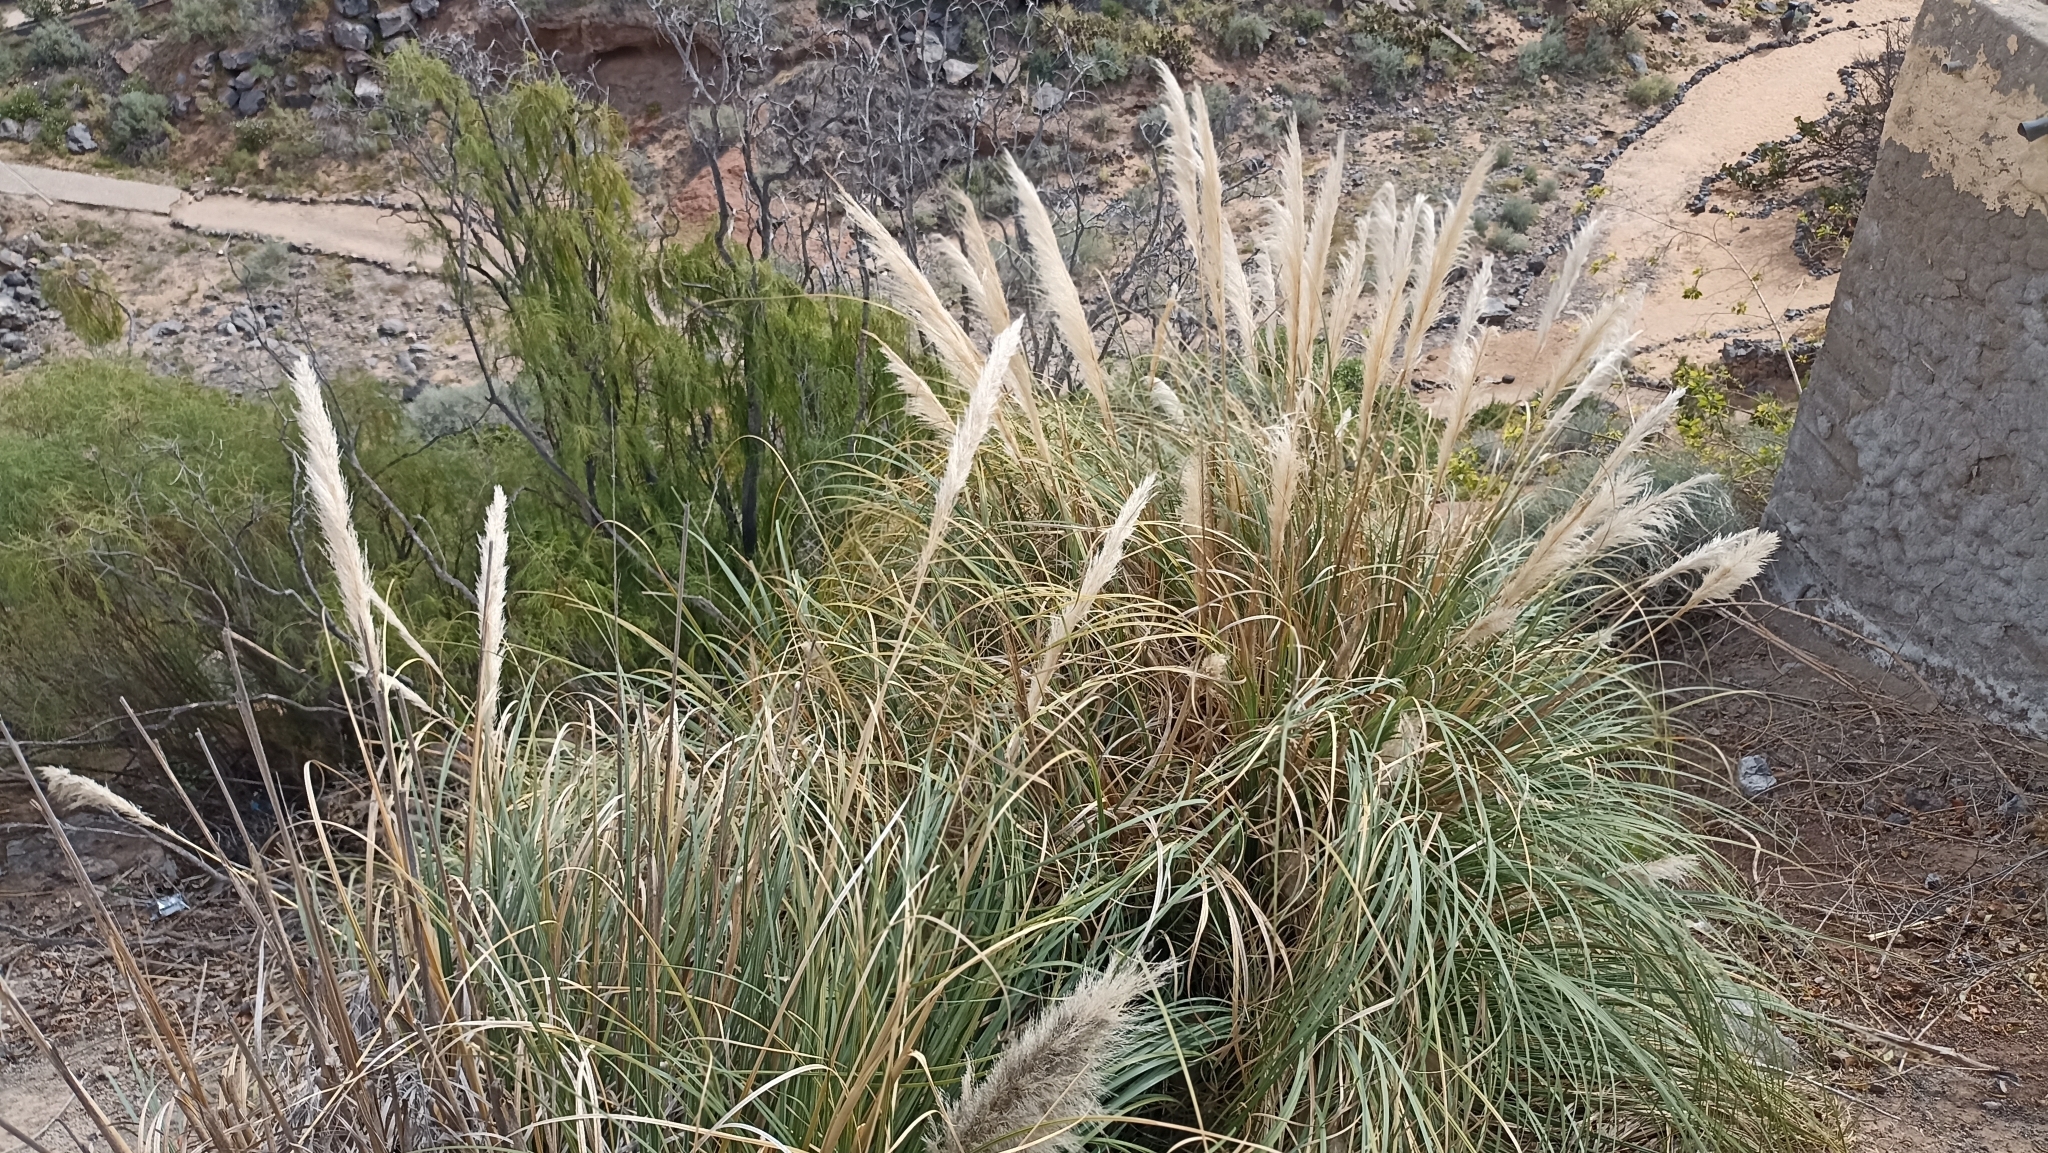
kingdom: Plantae
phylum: Tracheophyta
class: Liliopsida
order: Poales
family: Poaceae
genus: Cortaderia
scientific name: Cortaderia selloana
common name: Uruguayan pampas grass
